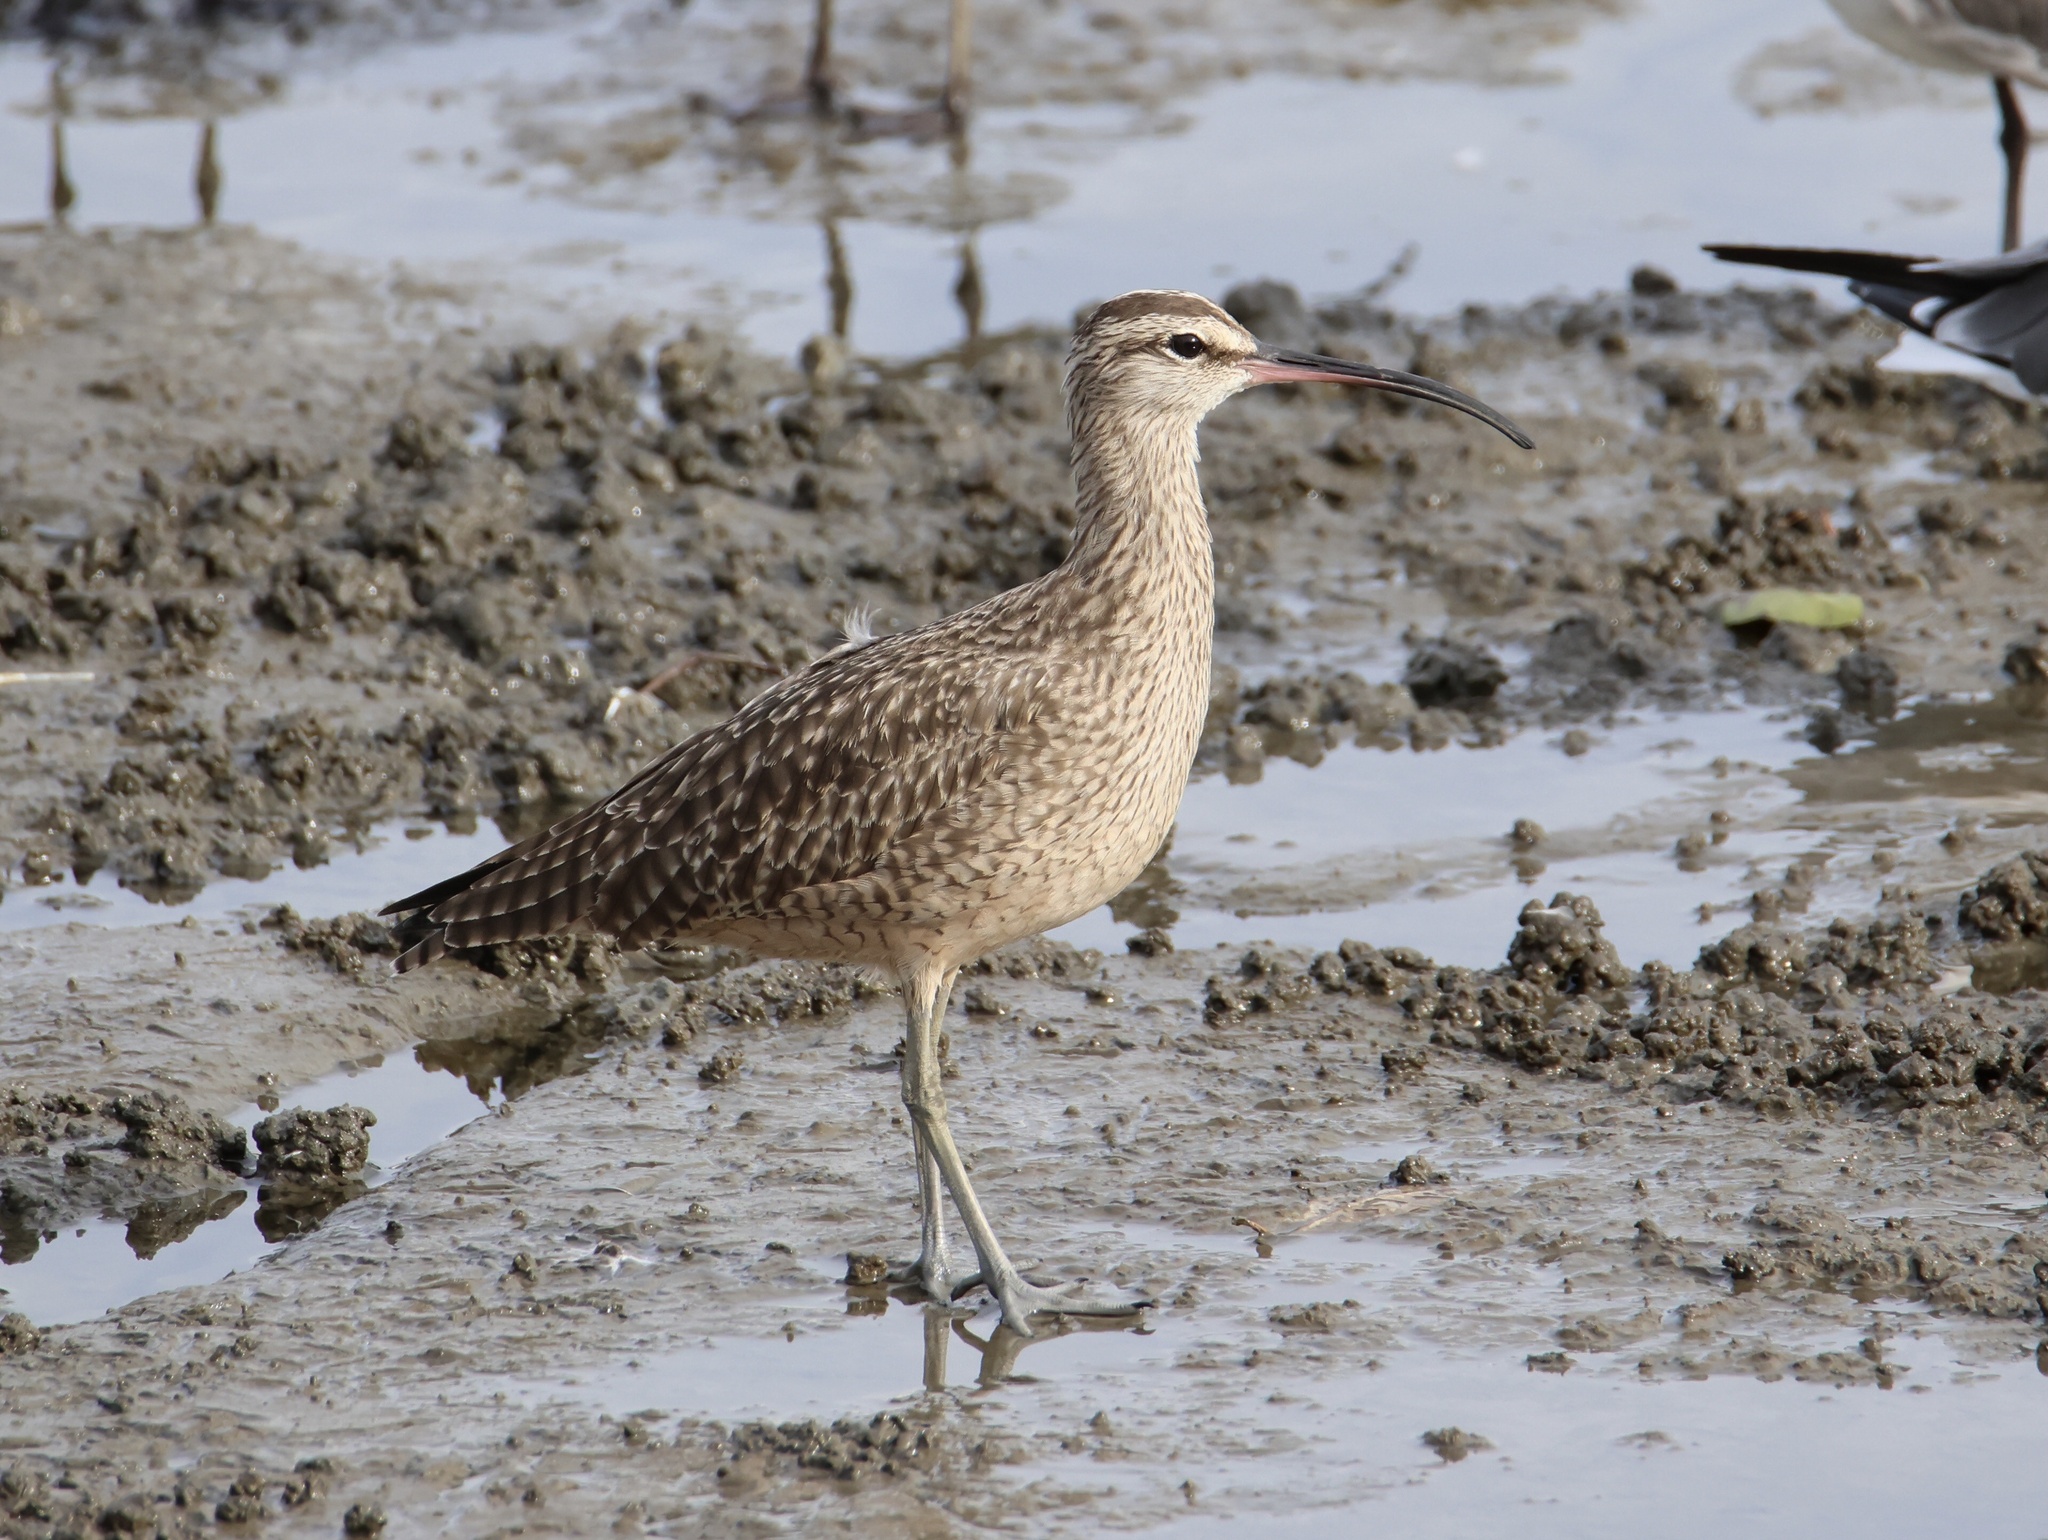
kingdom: Animalia
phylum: Chordata
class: Aves
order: Charadriiformes
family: Scolopacidae
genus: Numenius
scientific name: Numenius phaeopus
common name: Whimbrel
